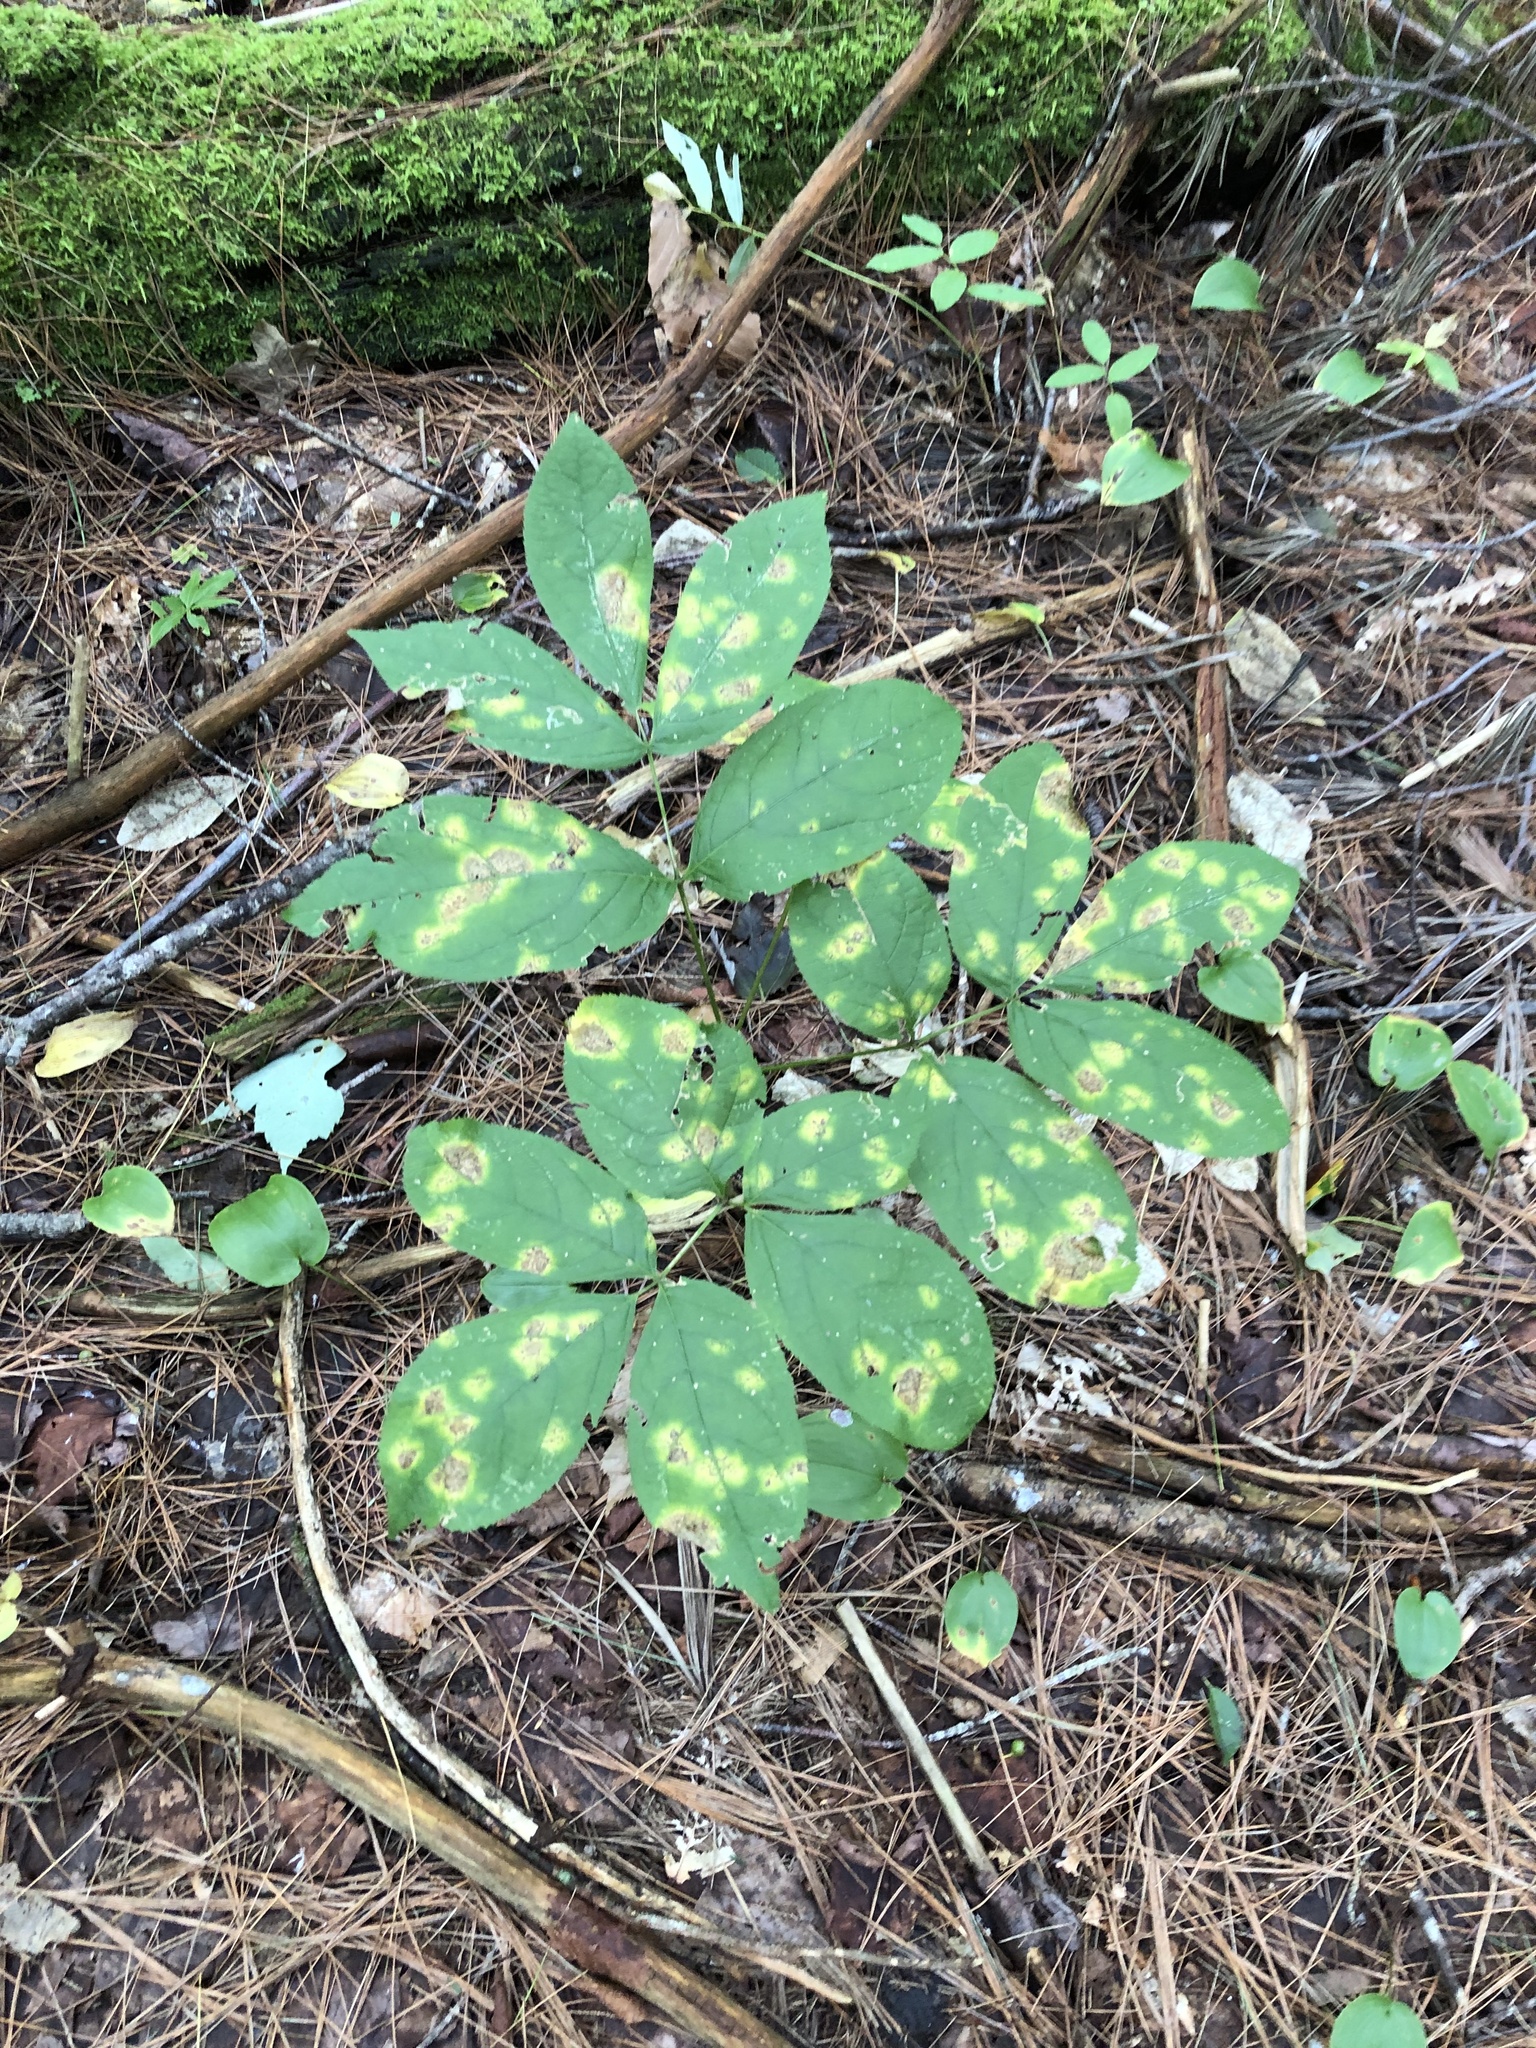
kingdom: Plantae
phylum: Tracheophyta
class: Magnoliopsida
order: Apiales
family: Araliaceae
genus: Aralia
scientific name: Aralia nudicaulis
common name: Wild sarsaparilla
